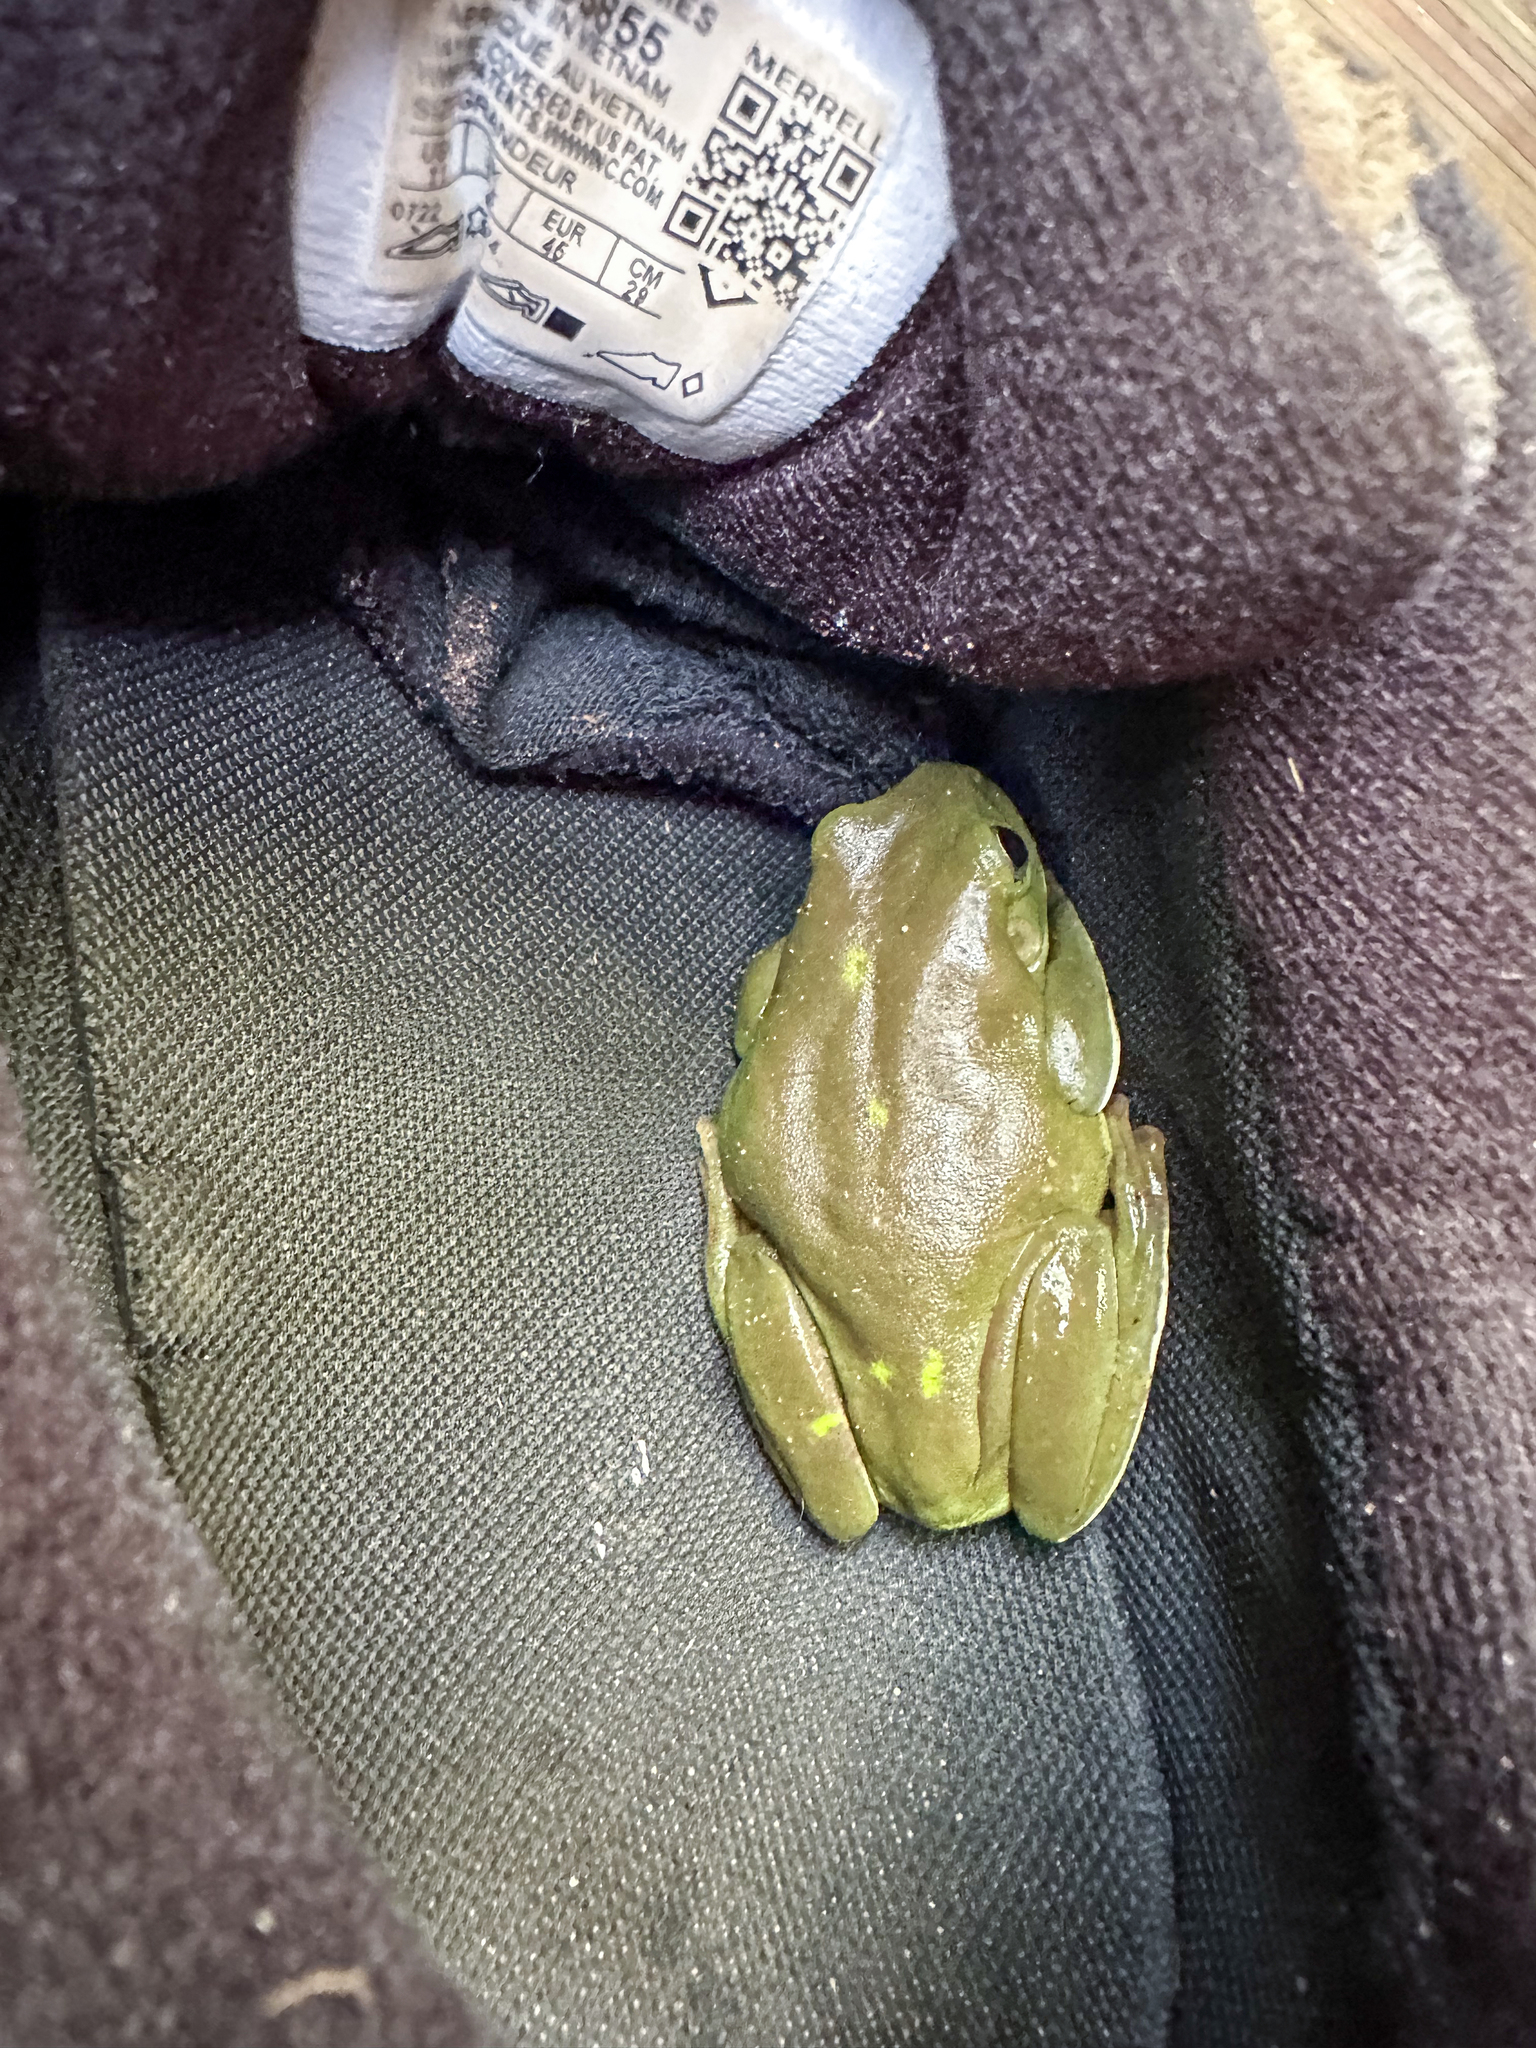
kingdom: Animalia
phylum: Chordata
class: Amphibia
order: Anura
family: Pelodryadidae
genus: Ranoidea
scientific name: Ranoidea caerulea
